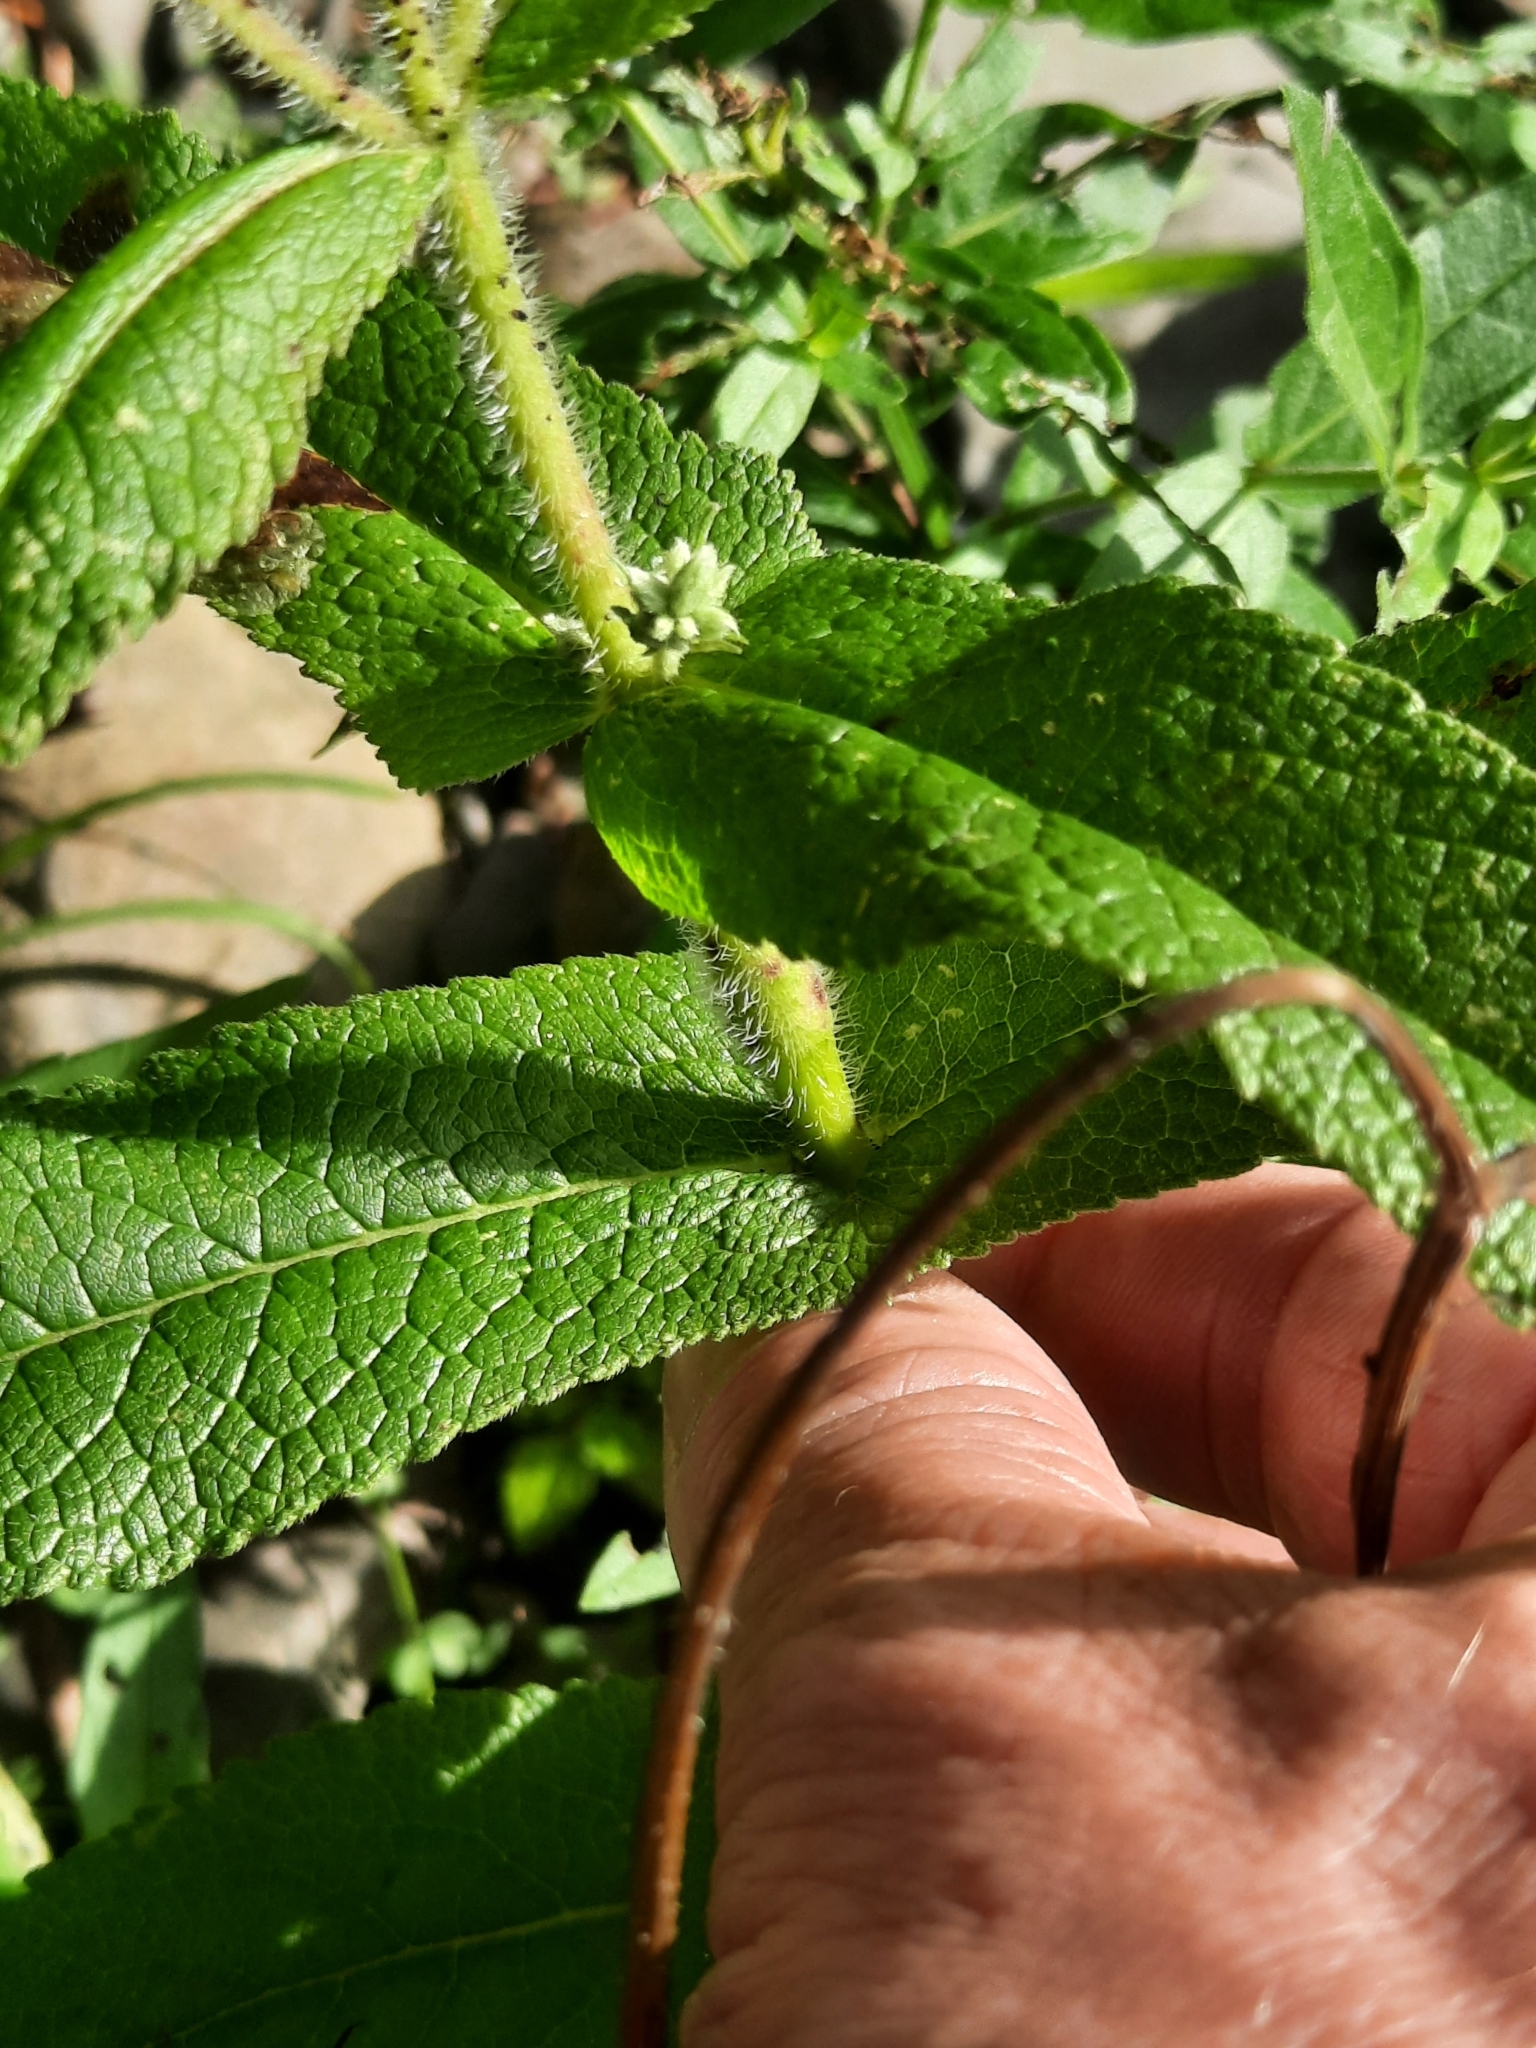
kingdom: Plantae
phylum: Tracheophyta
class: Magnoliopsida
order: Asterales
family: Asteraceae
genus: Eupatorium
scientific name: Eupatorium perfoliatum
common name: Boneset
